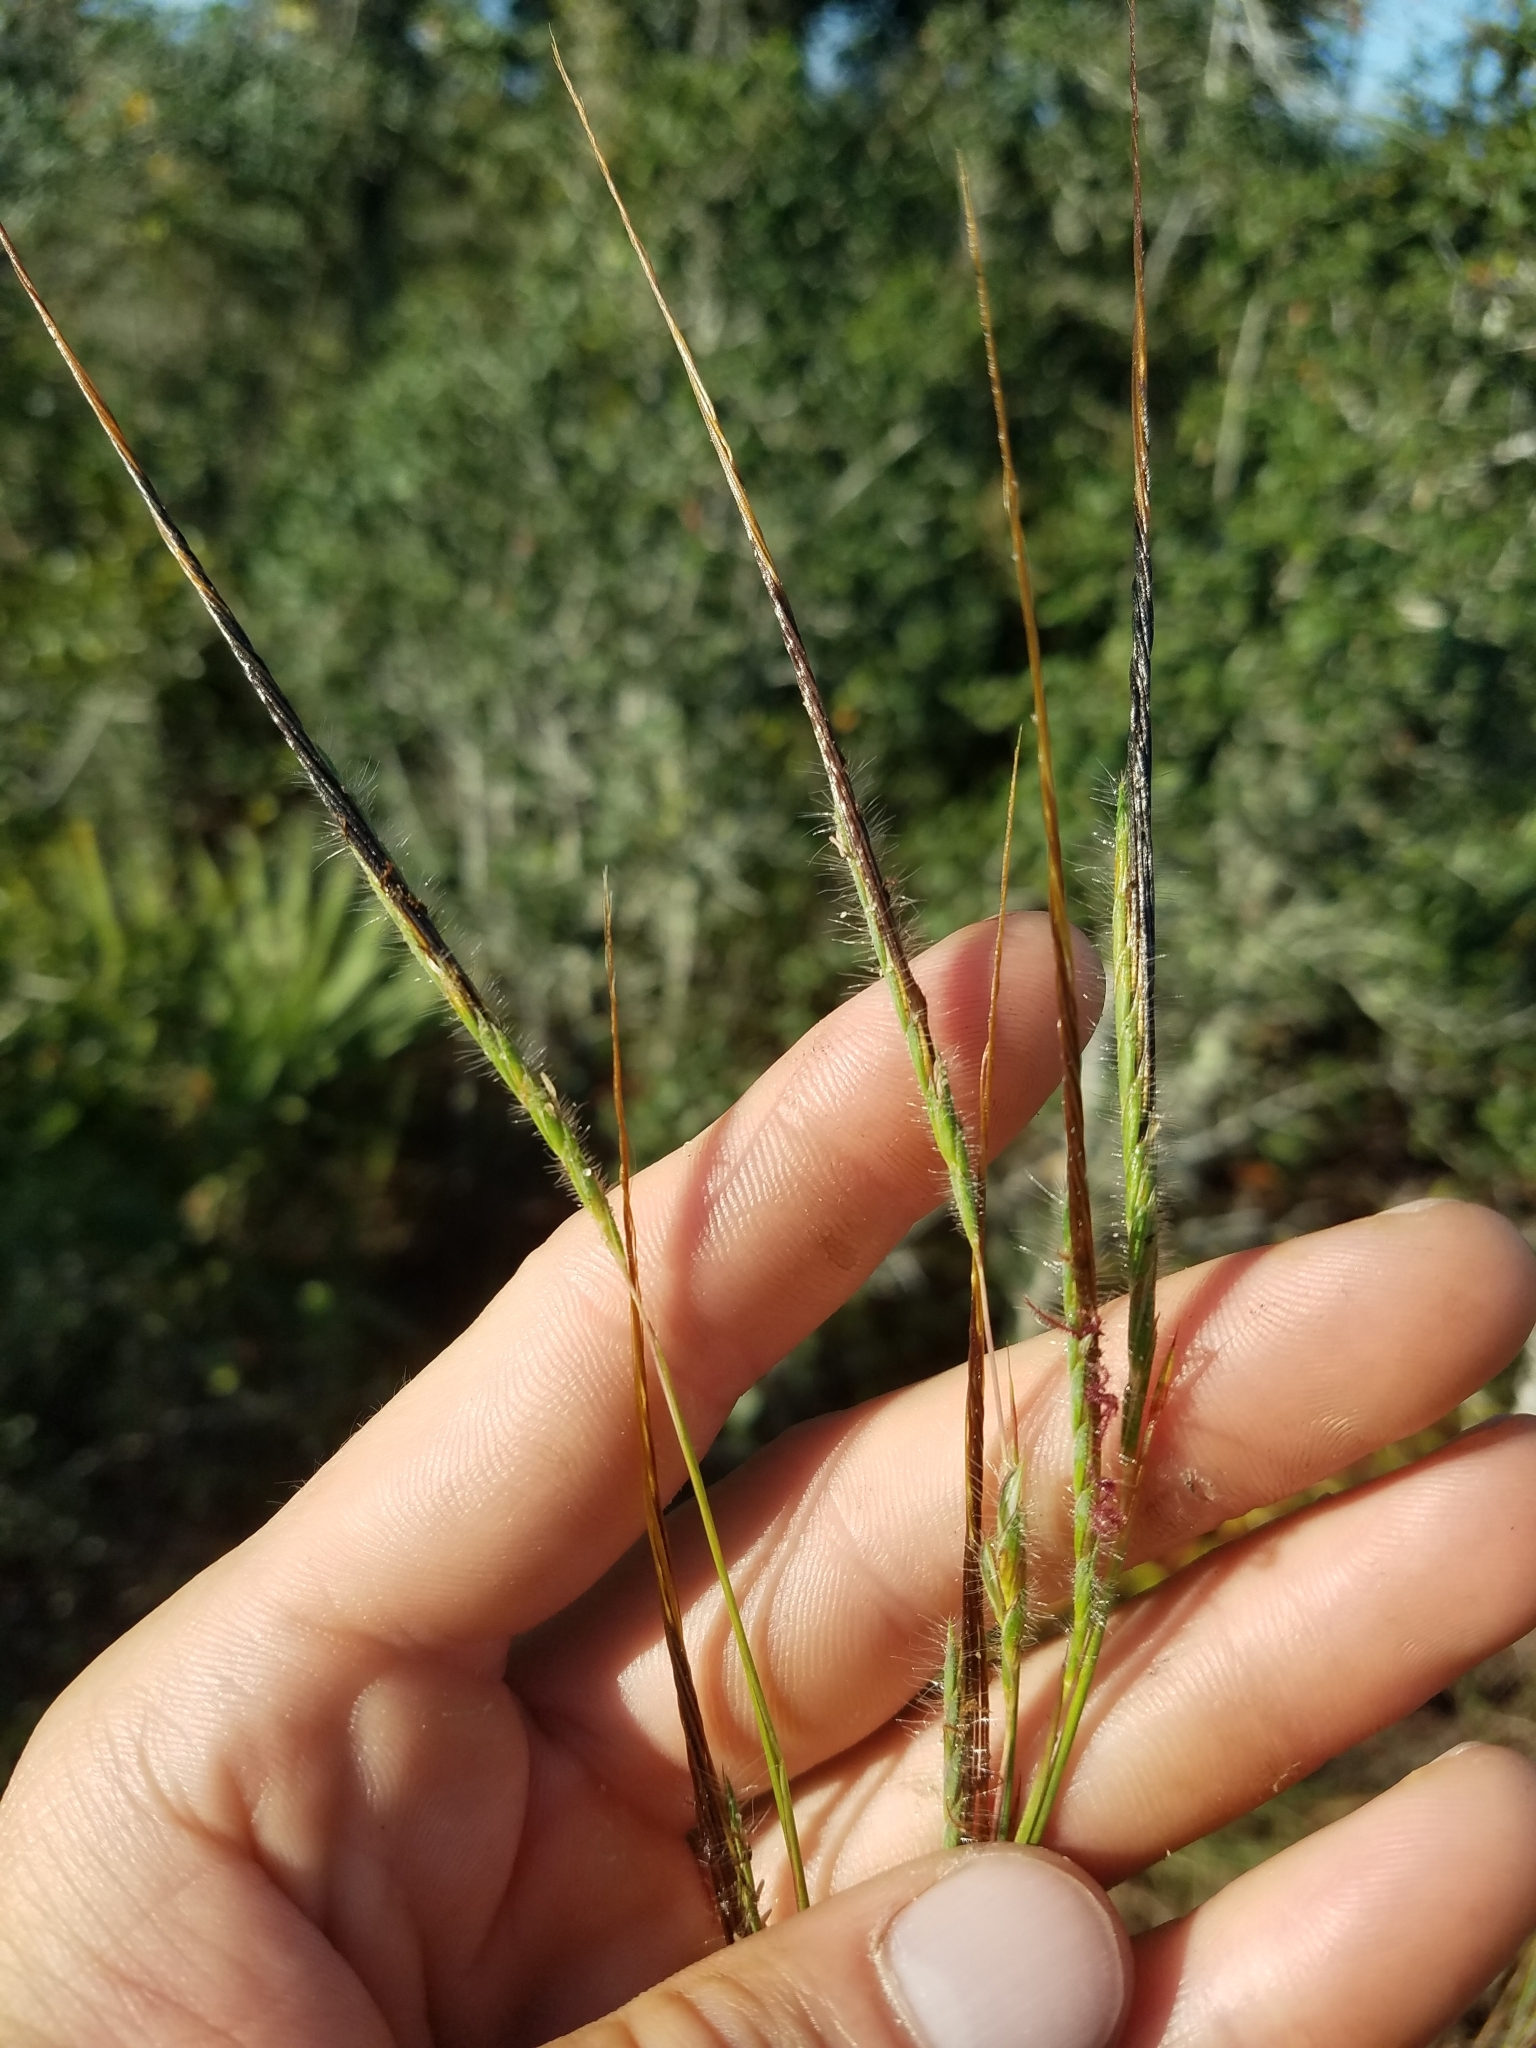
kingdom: Plantae
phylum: Tracheophyta
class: Liliopsida
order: Poales
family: Poaceae
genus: Heteropogon
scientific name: Heteropogon contortus
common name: Tanglehead
